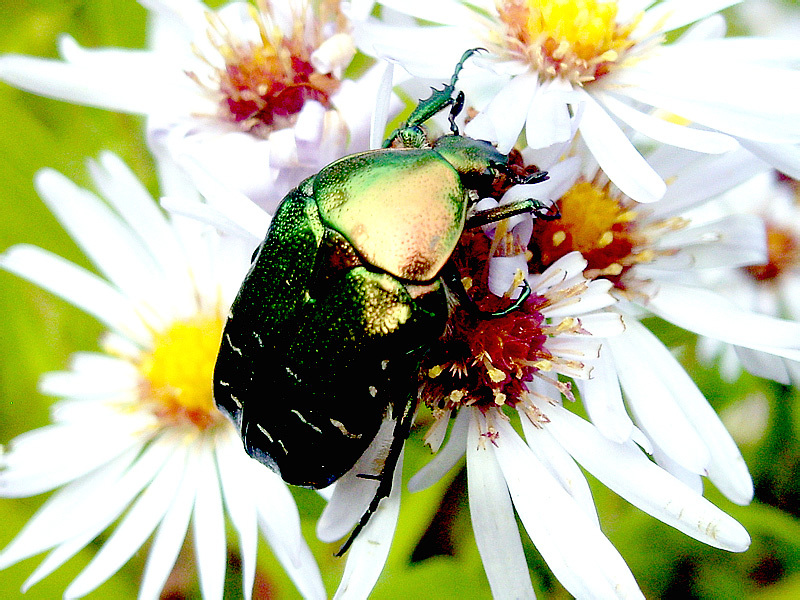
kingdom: Animalia
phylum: Arthropoda
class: Insecta
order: Coleoptera
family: Scarabaeidae
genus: Cetonia
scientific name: Cetonia aurata
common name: Rose chafer
